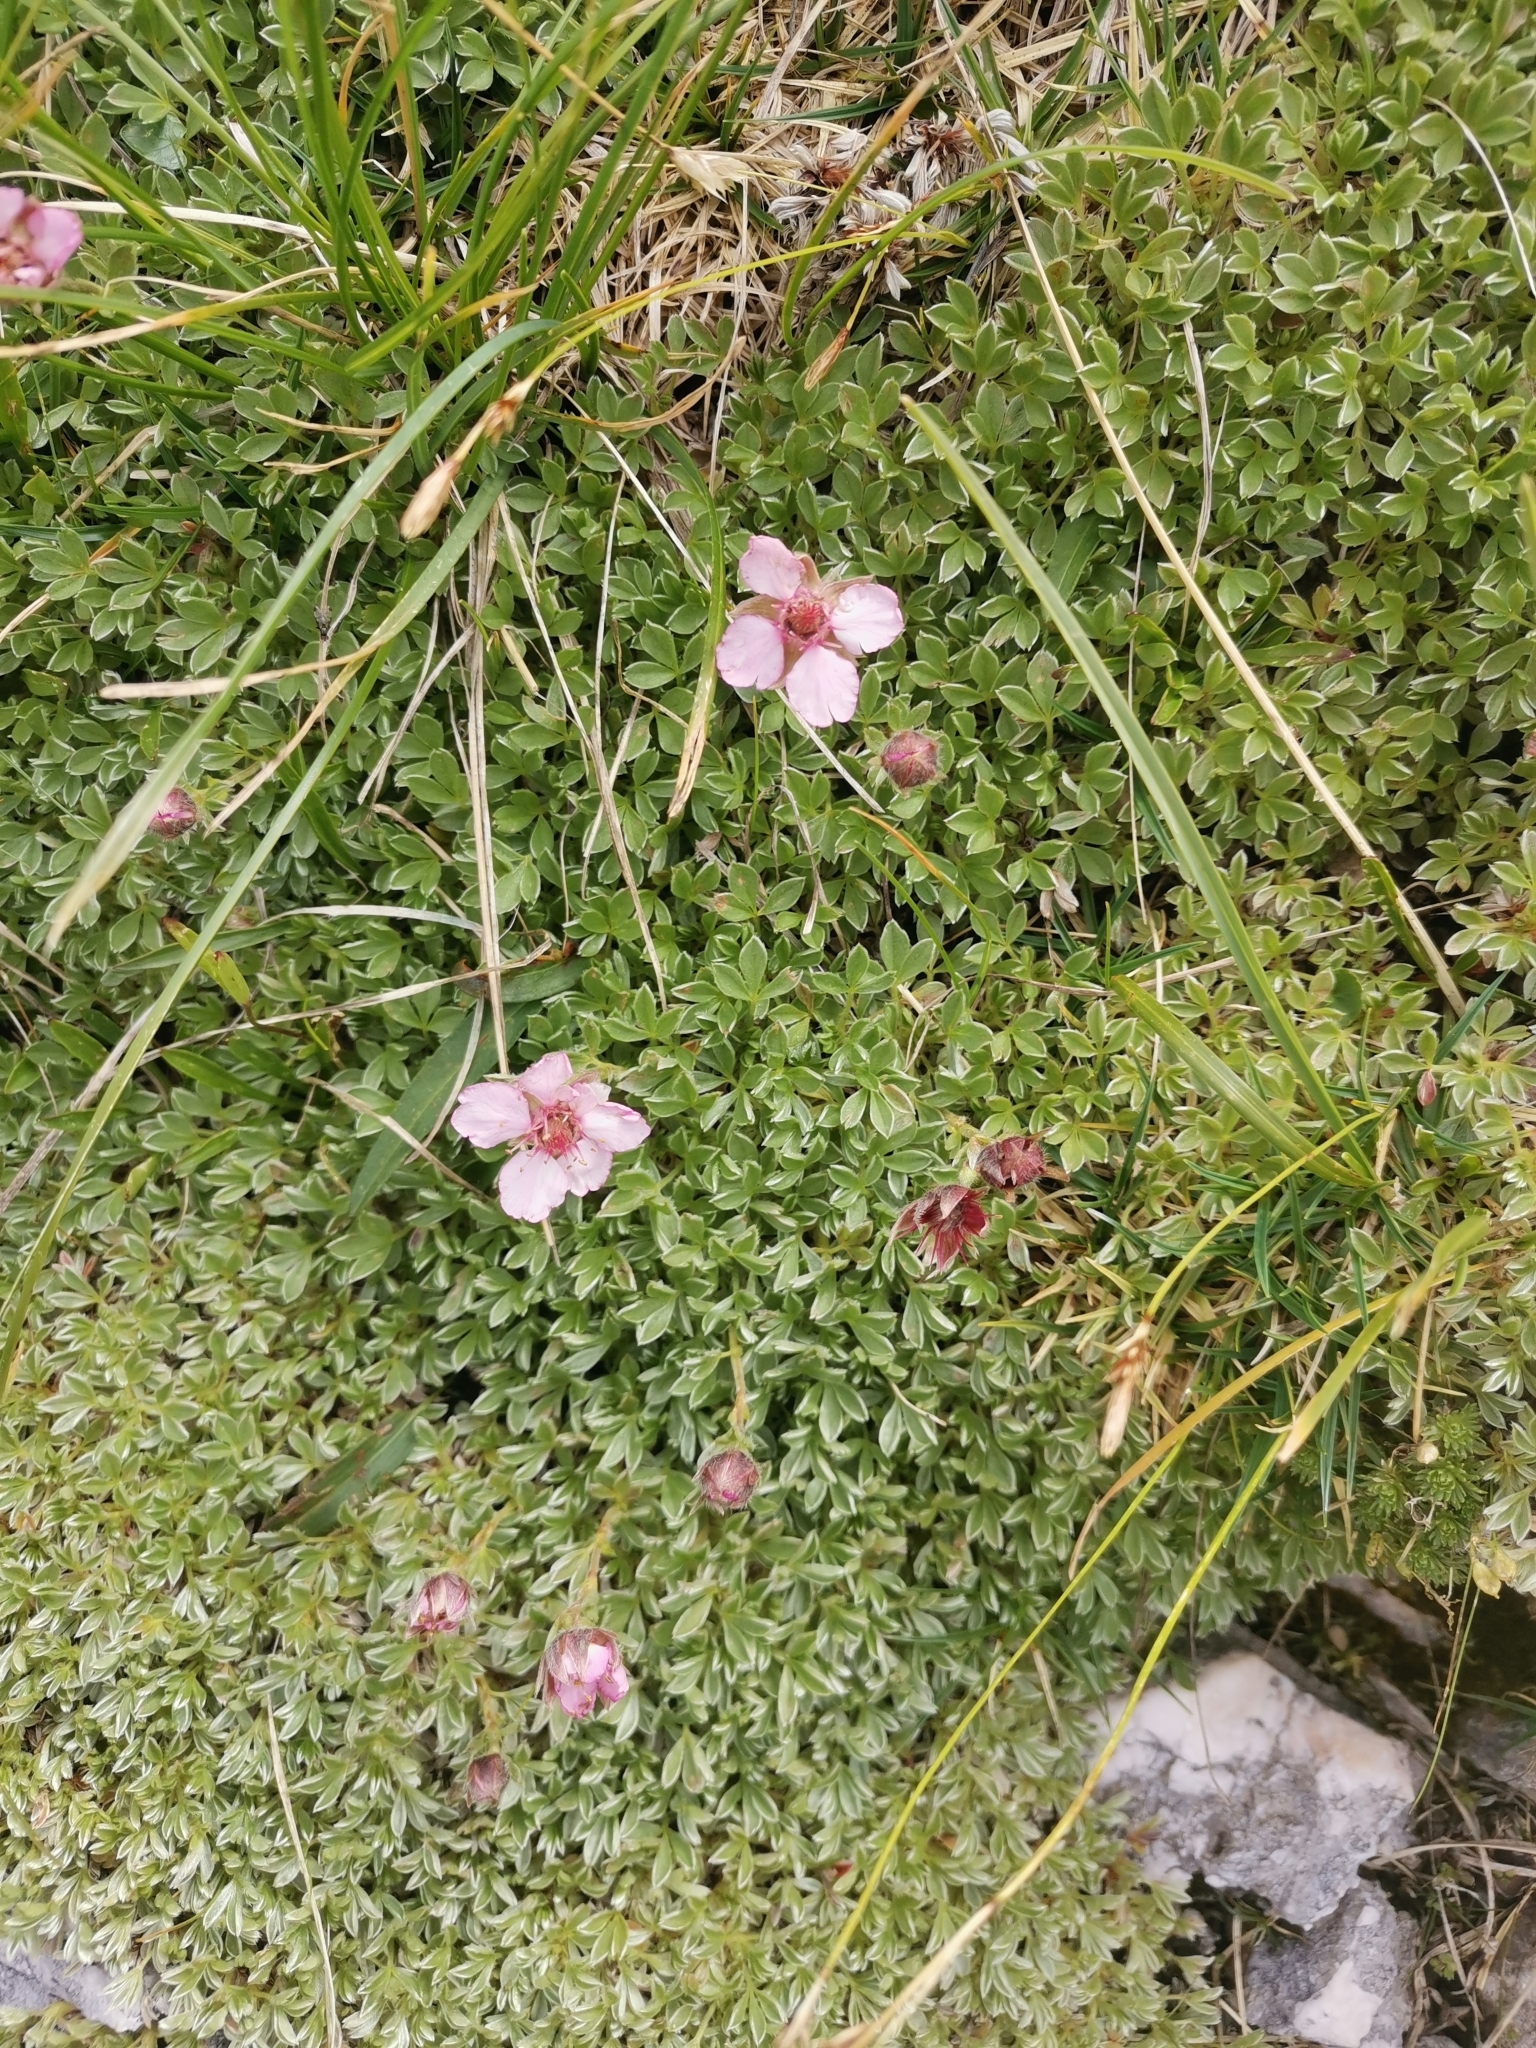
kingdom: Plantae
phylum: Tracheophyta
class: Magnoliopsida
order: Rosales
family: Rosaceae
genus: Potentilla
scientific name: Potentilla nitida
